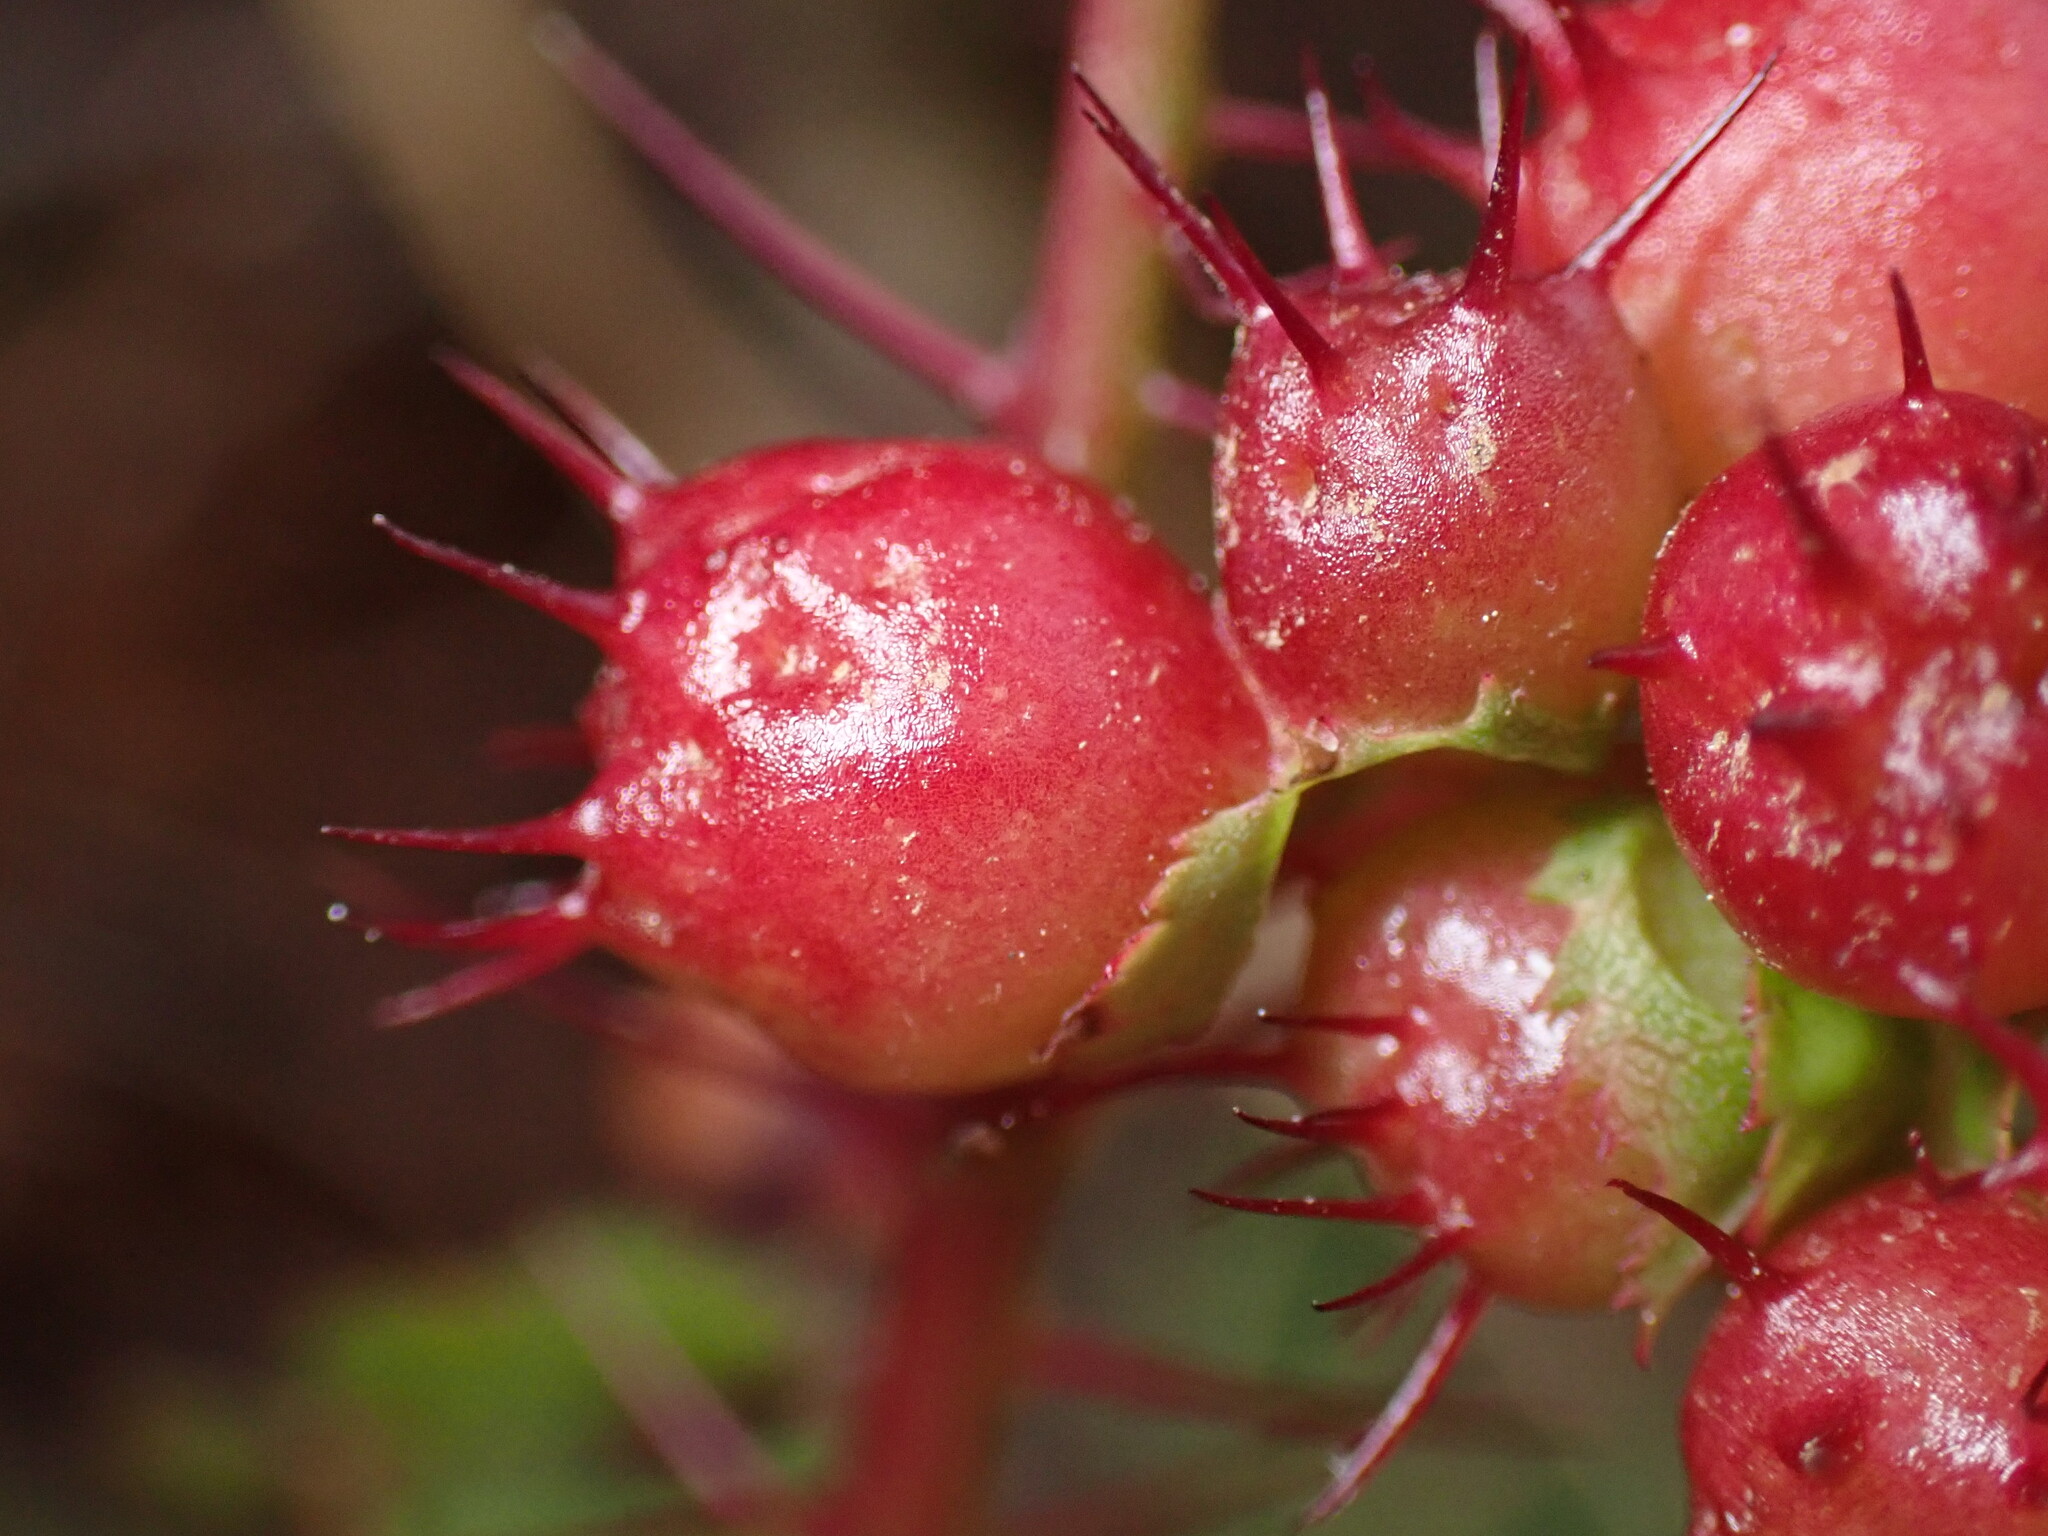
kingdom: Animalia
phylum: Arthropoda
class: Insecta
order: Hymenoptera
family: Cynipidae
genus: Diplolepis
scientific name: Diplolepis polita
